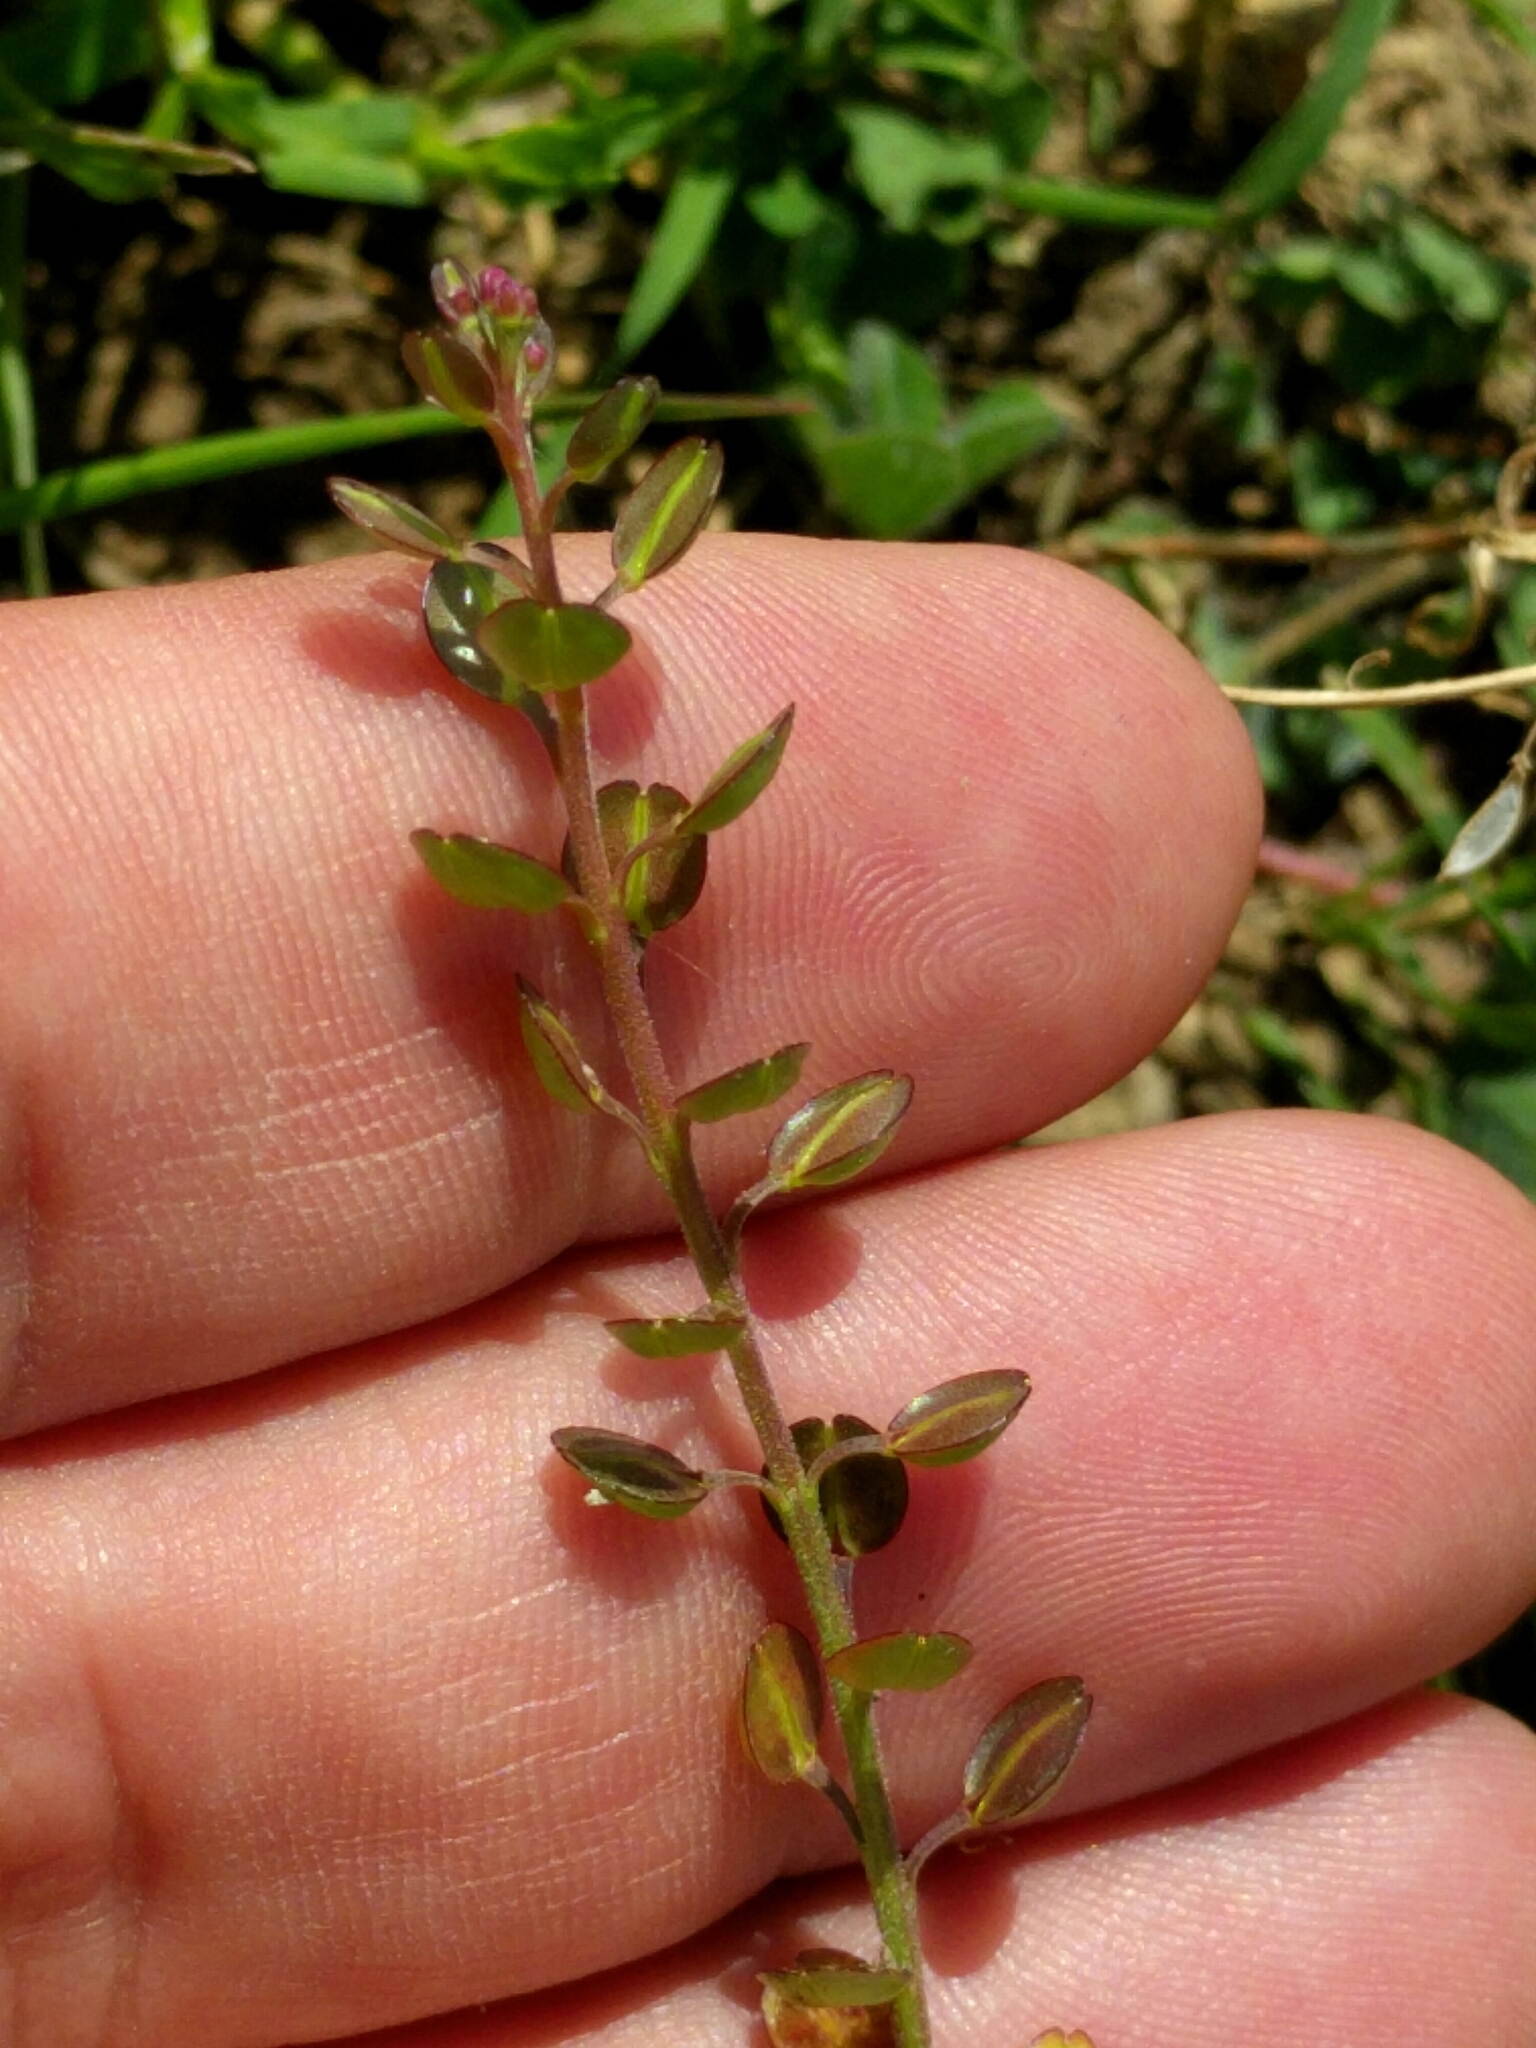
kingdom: Plantae
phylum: Tracheophyta
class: Magnoliopsida
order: Brassicales
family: Brassicaceae
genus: Lepidium
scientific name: Lepidium nitidum
